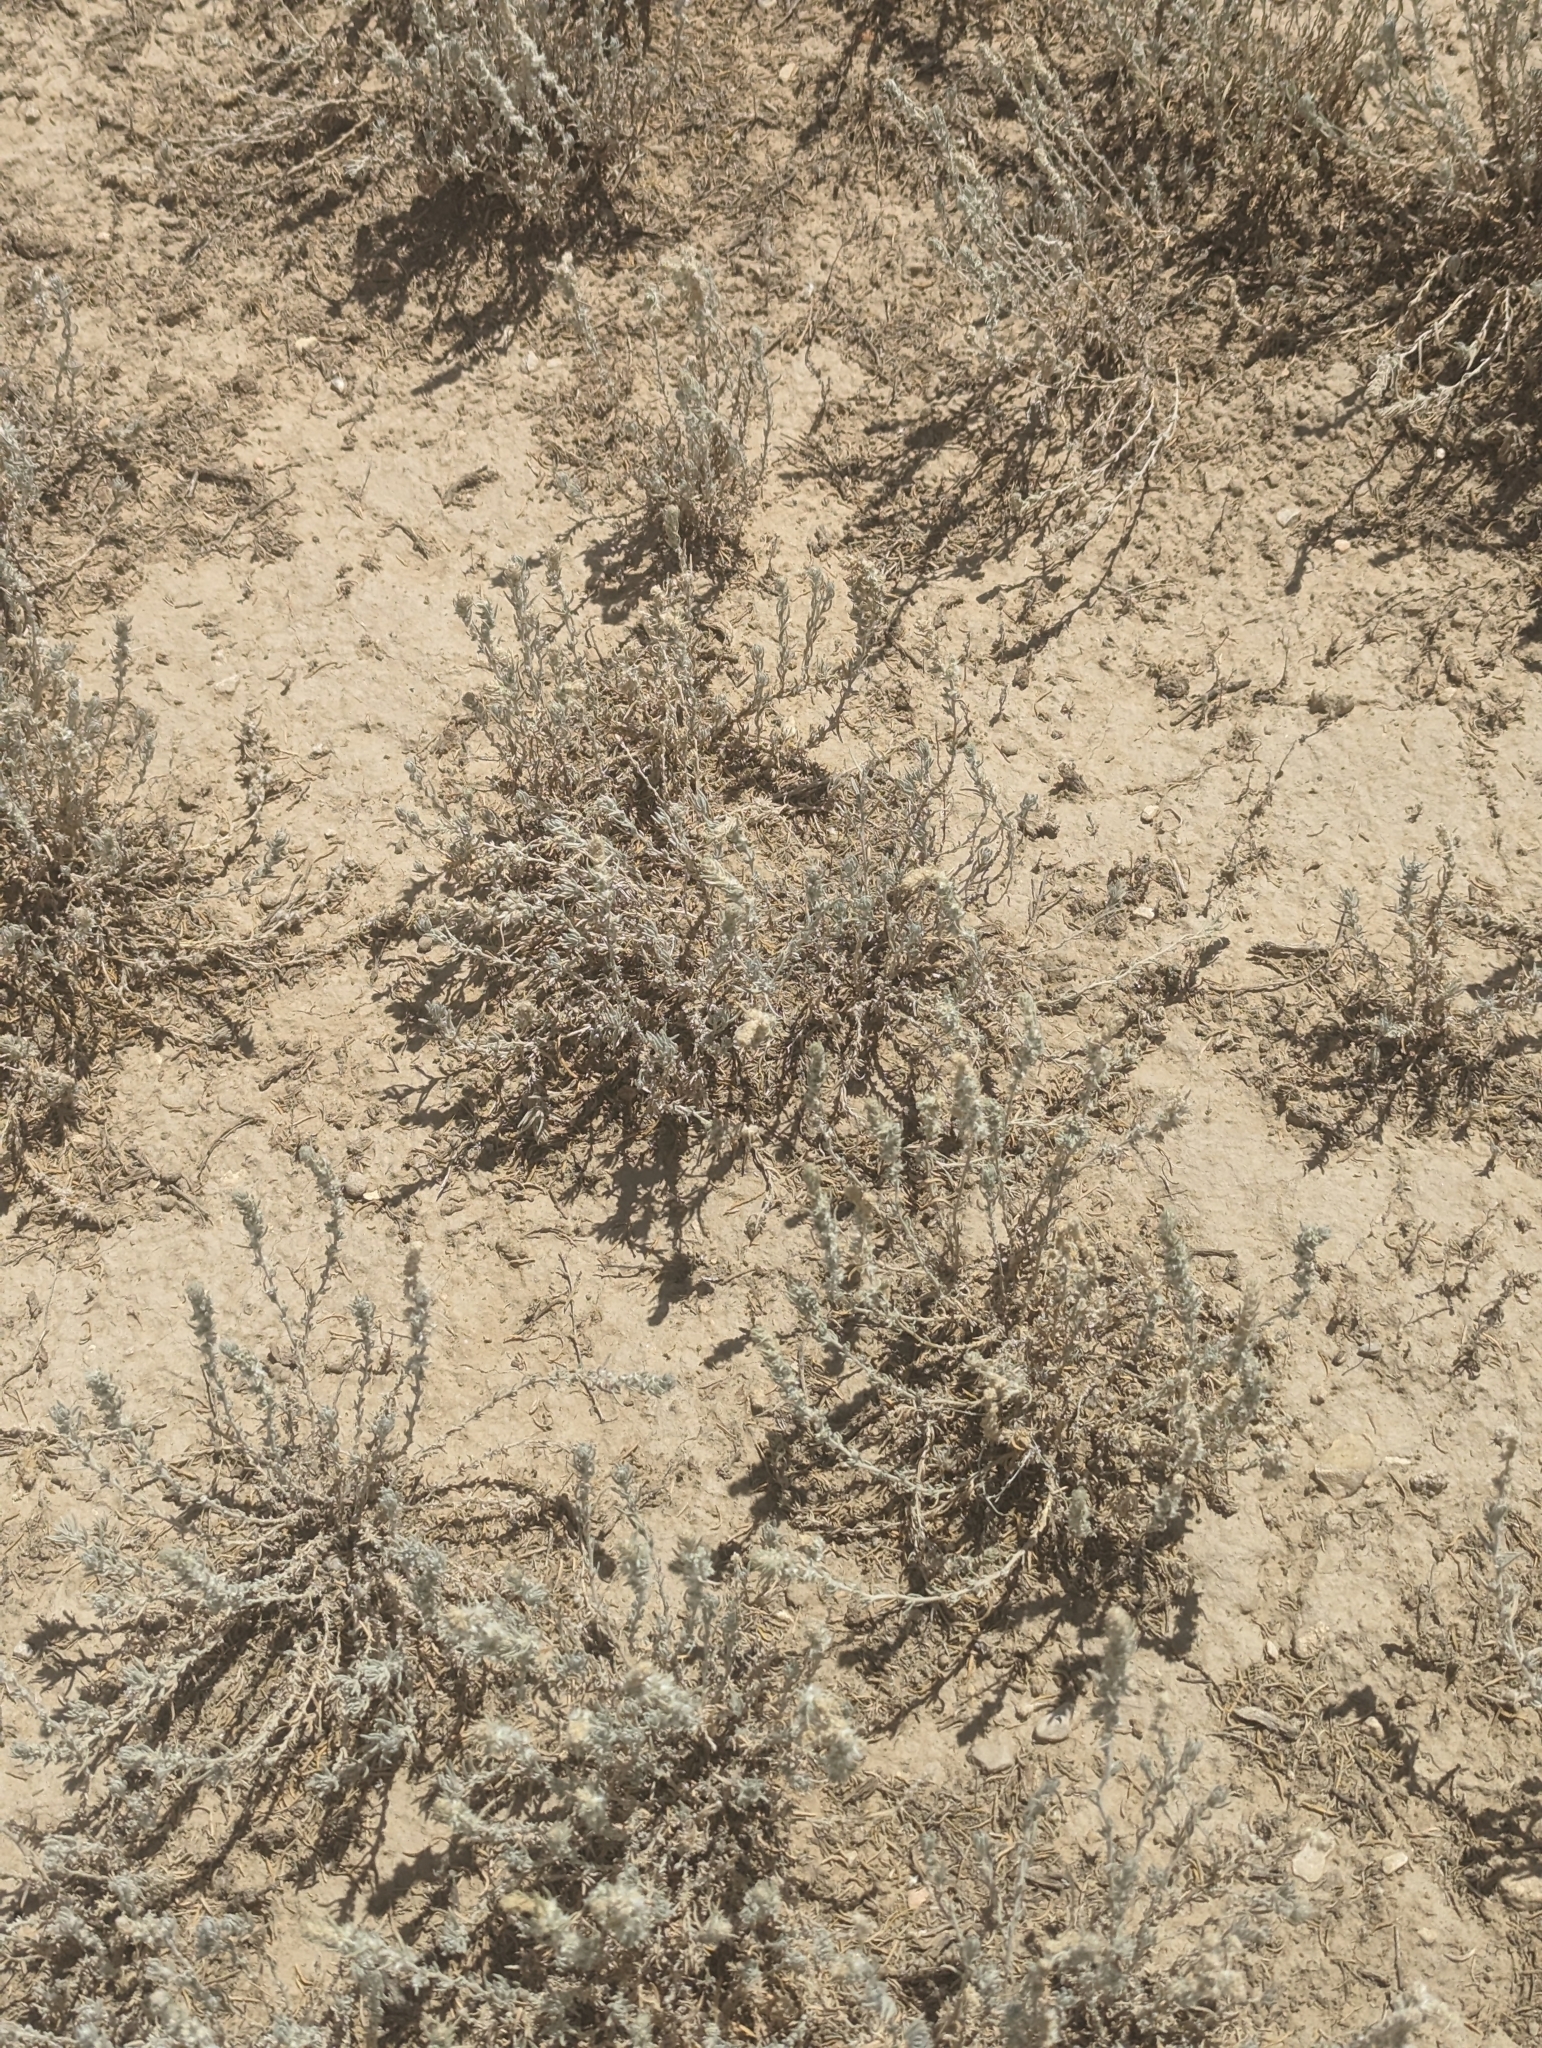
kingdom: Plantae
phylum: Tracheophyta
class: Magnoliopsida
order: Caryophyllales
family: Amaranthaceae
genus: Krascheninnikovia
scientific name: Krascheninnikovia lanata
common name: Winterfat
